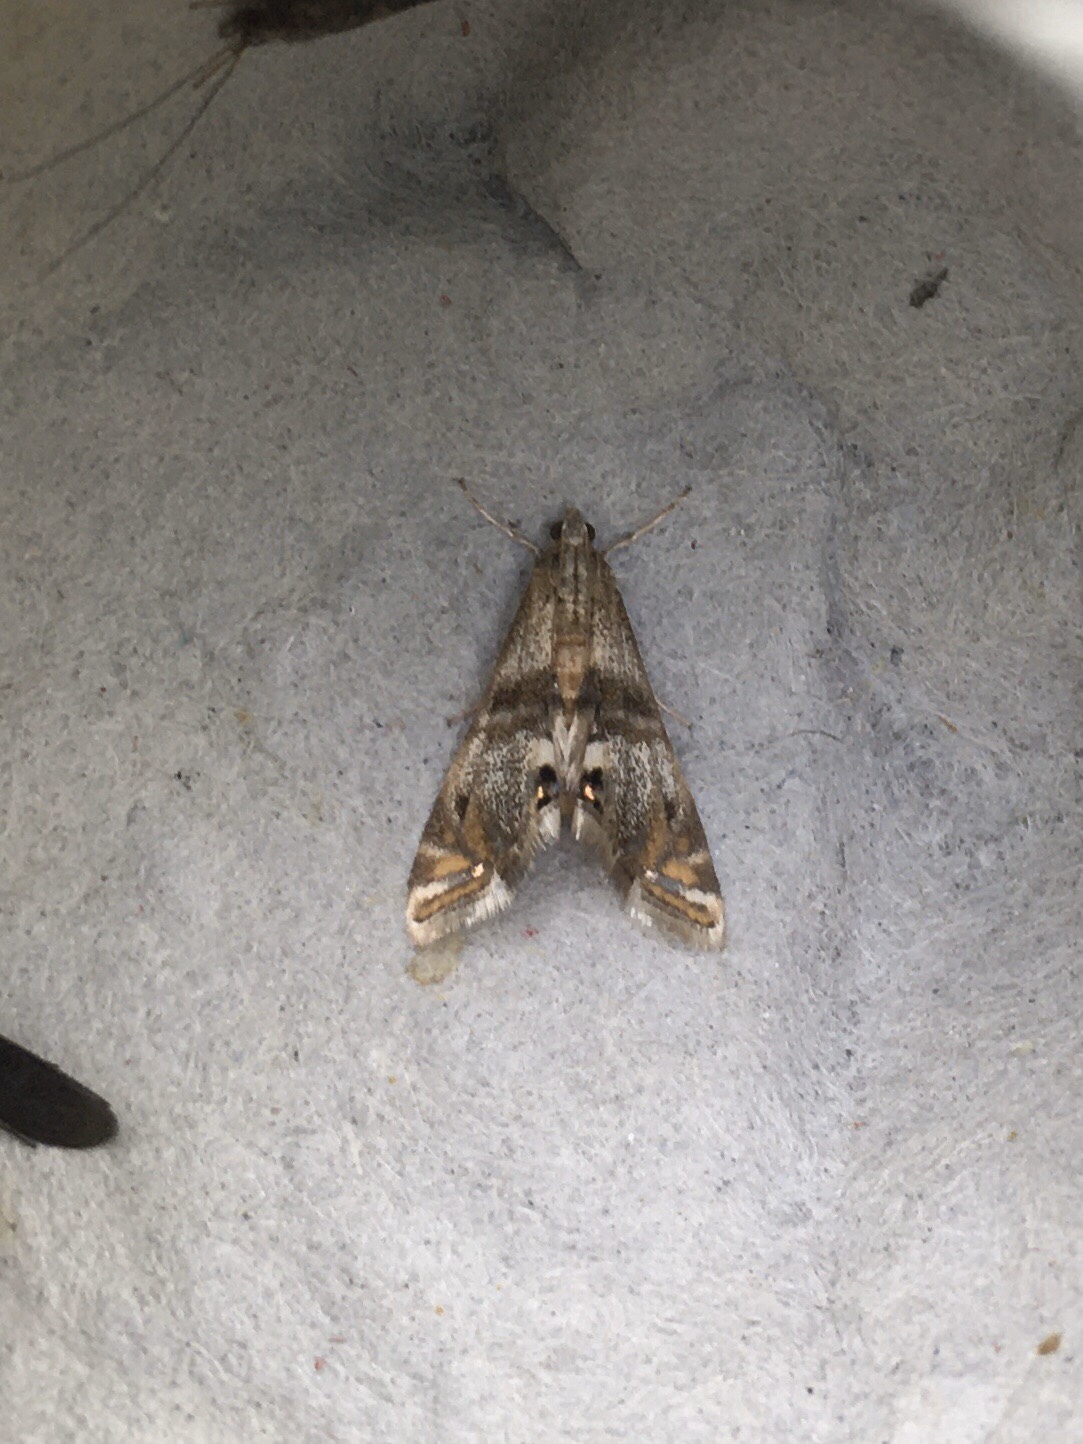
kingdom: Animalia
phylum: Arthropoda
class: Insecta
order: Lepidoptera
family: Crambidae
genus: Petrophila
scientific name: Petrophila bifascialis
